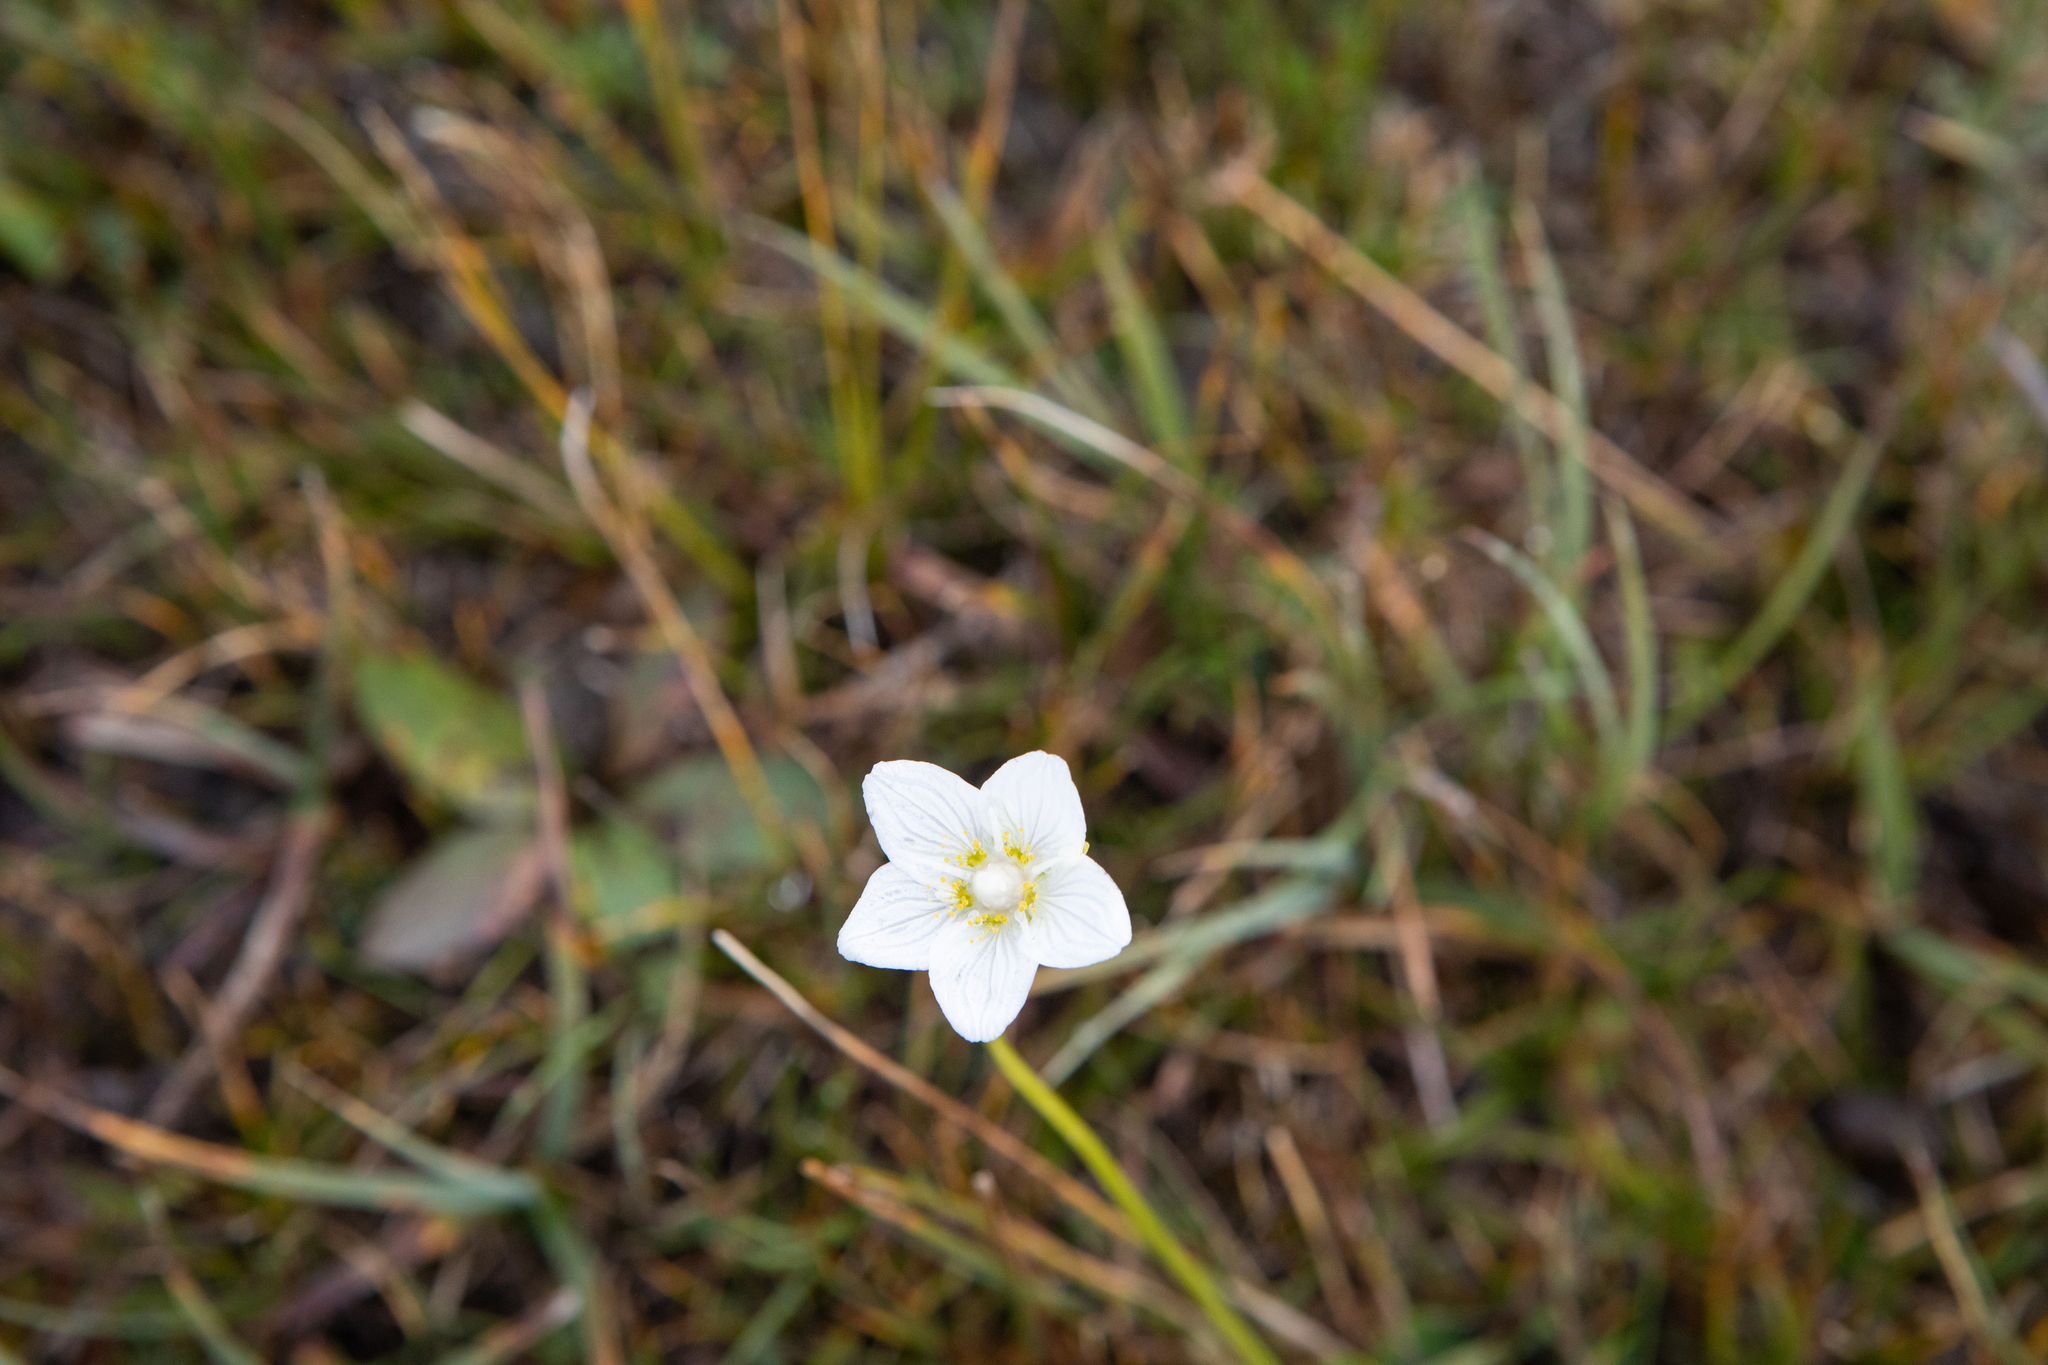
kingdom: Plantae
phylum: Tracheophyta
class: Magnoliopsida
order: Celastrales
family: Parnassiaceae
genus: Parnassia
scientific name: Parnassia palustris
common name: Grass-of-parnassus
